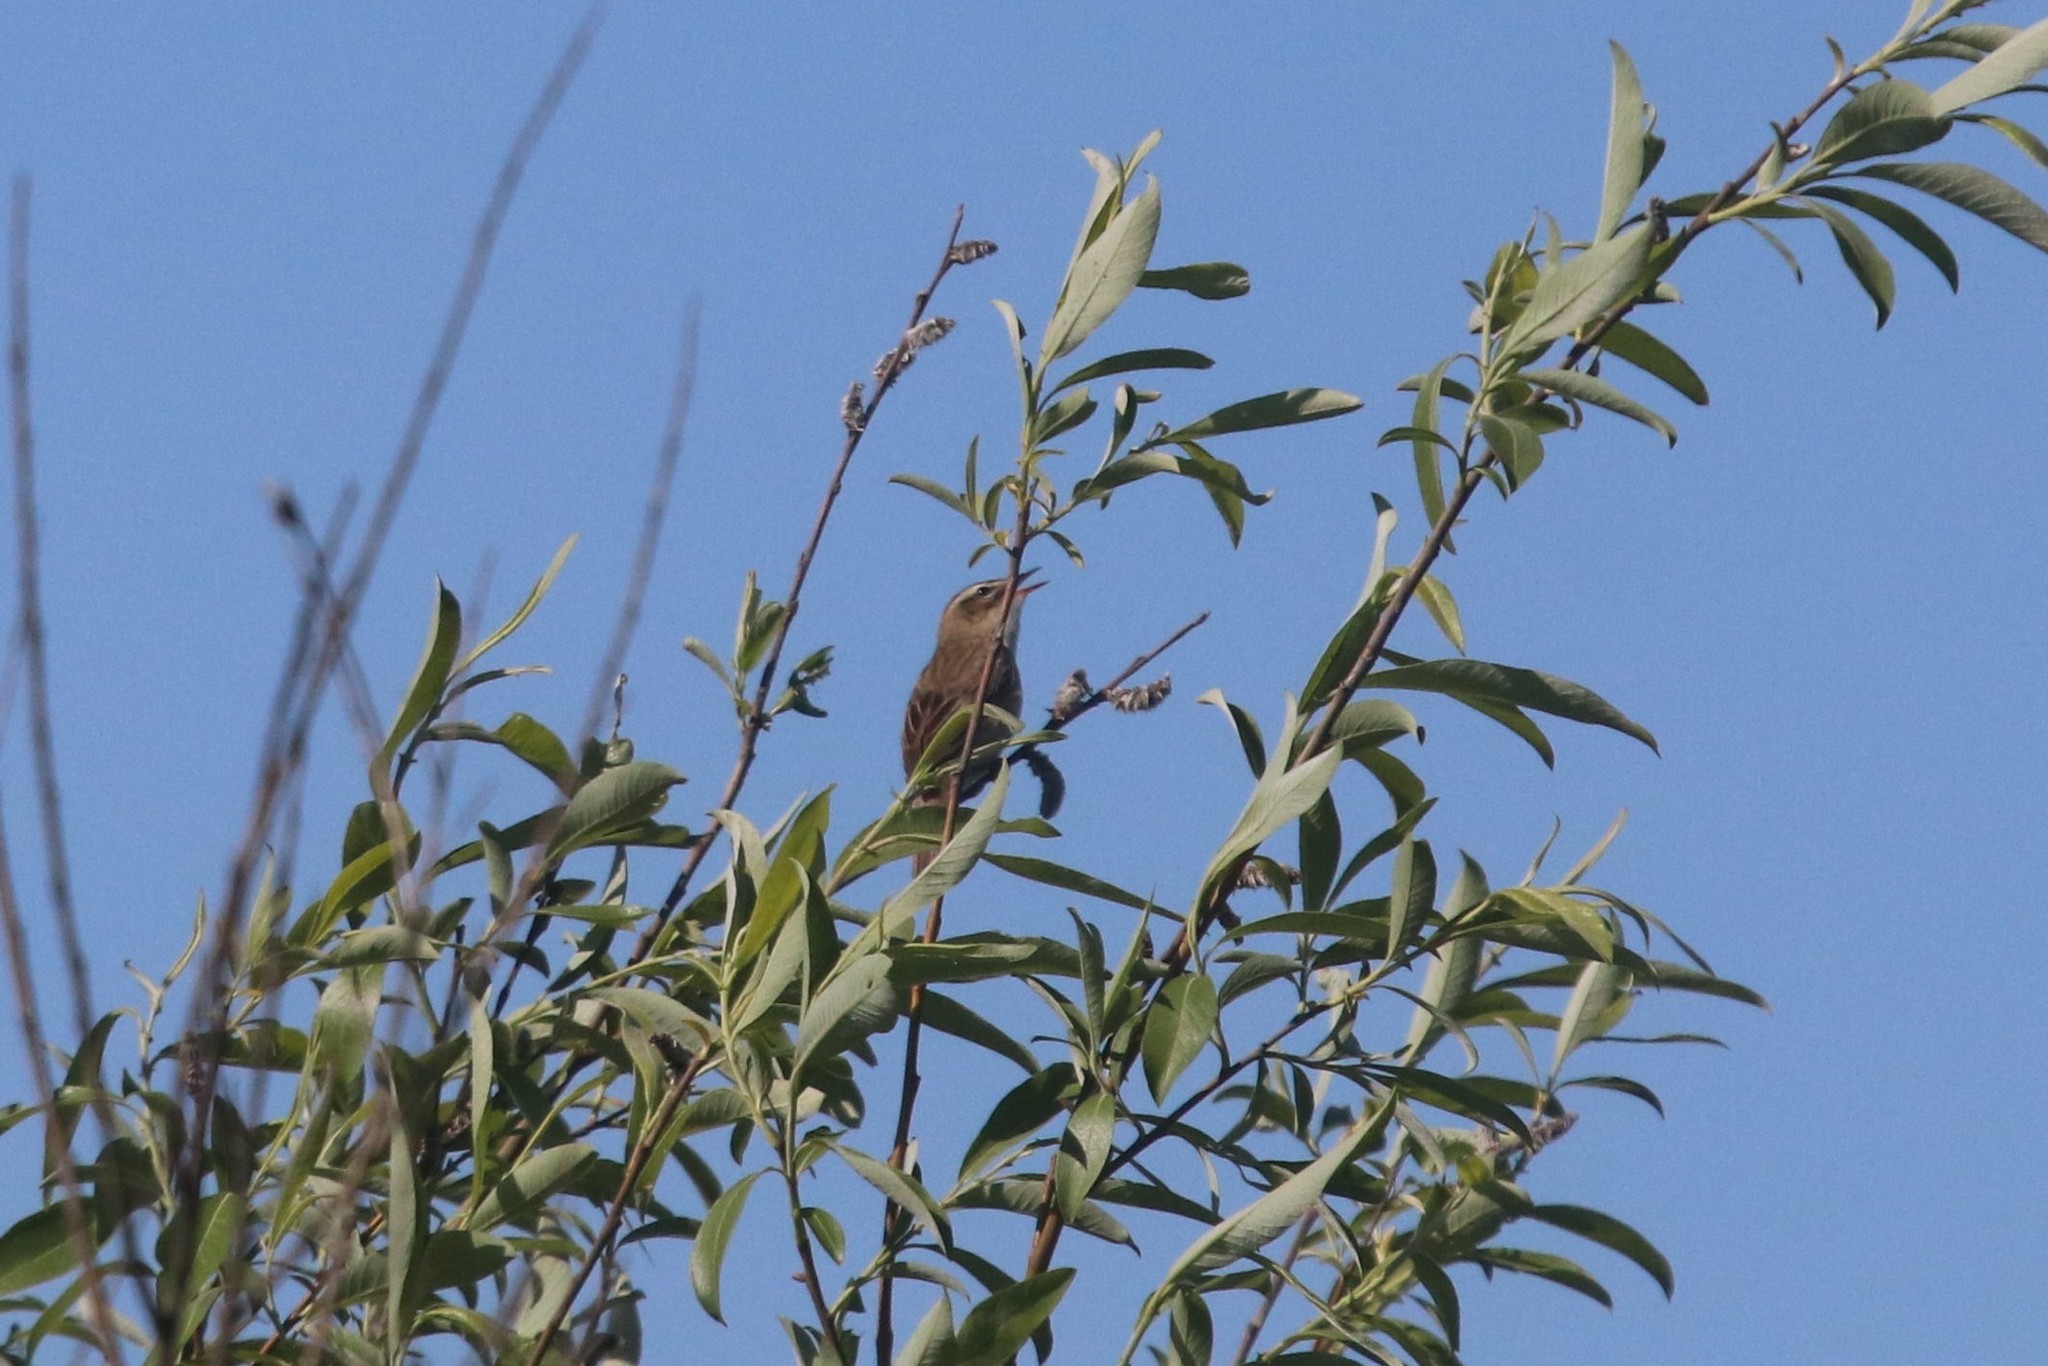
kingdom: Animalia
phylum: Chordata
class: Aves
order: Passeriformes
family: Acrocephalidae
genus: Acrocephalus
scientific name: Acrocephalus schoenobaenus
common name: Sedge warbler
